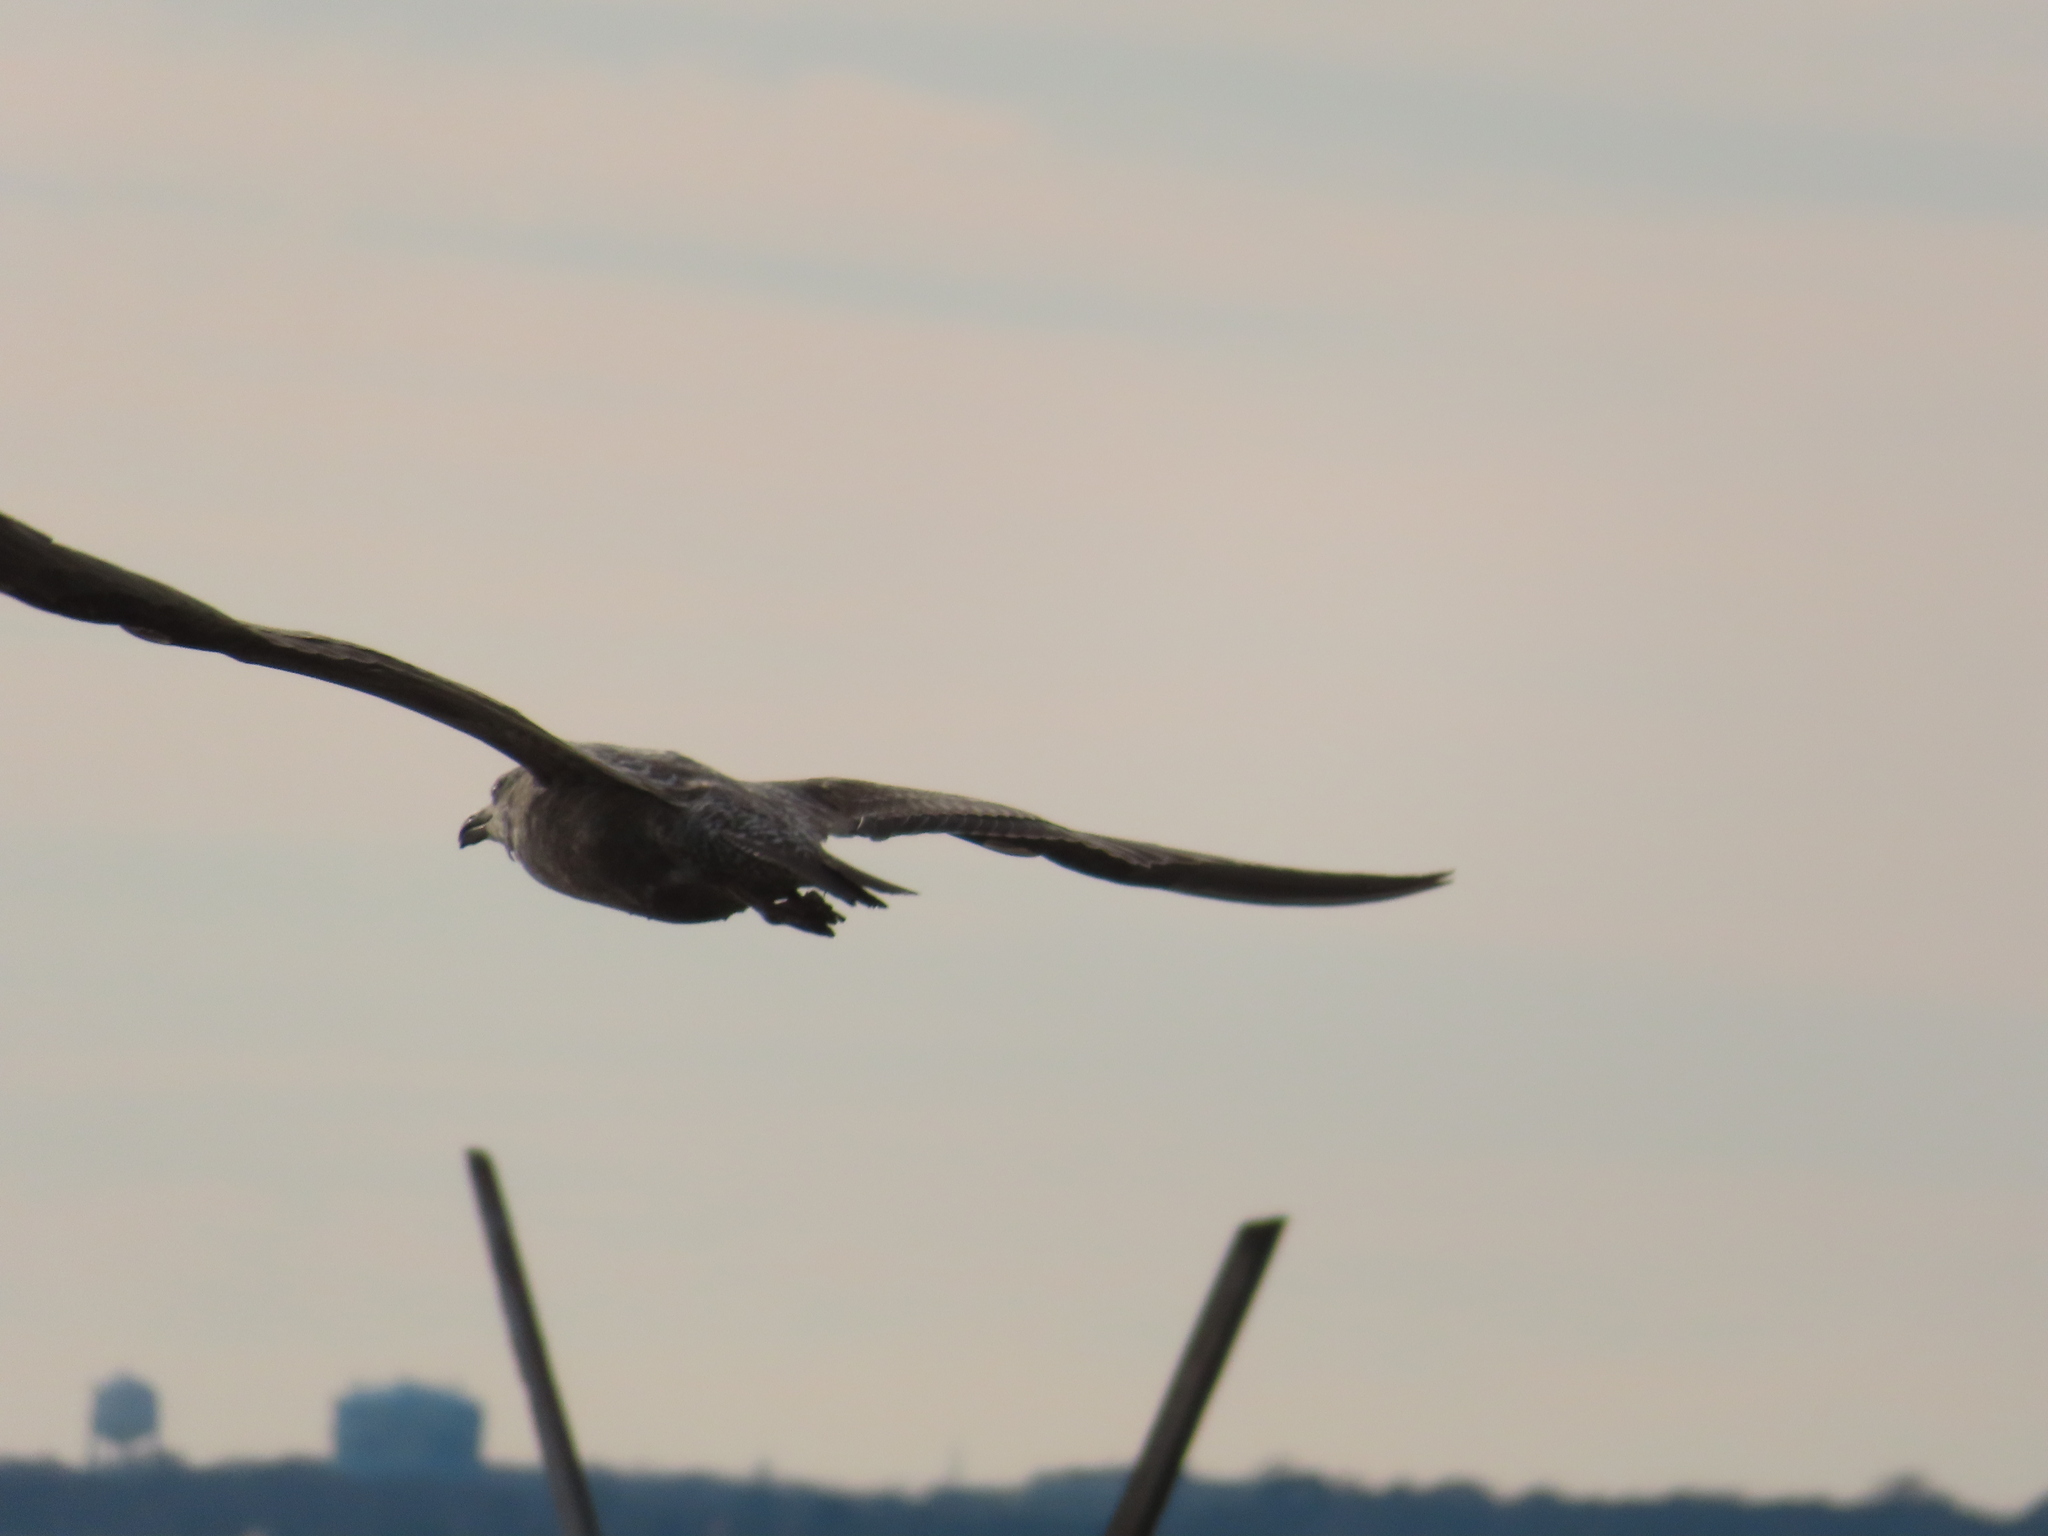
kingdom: Animalia
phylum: Chordata
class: Aves
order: Charadriiformes
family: Laridae
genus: Larus
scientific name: Larus argentatus
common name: Herring gull
